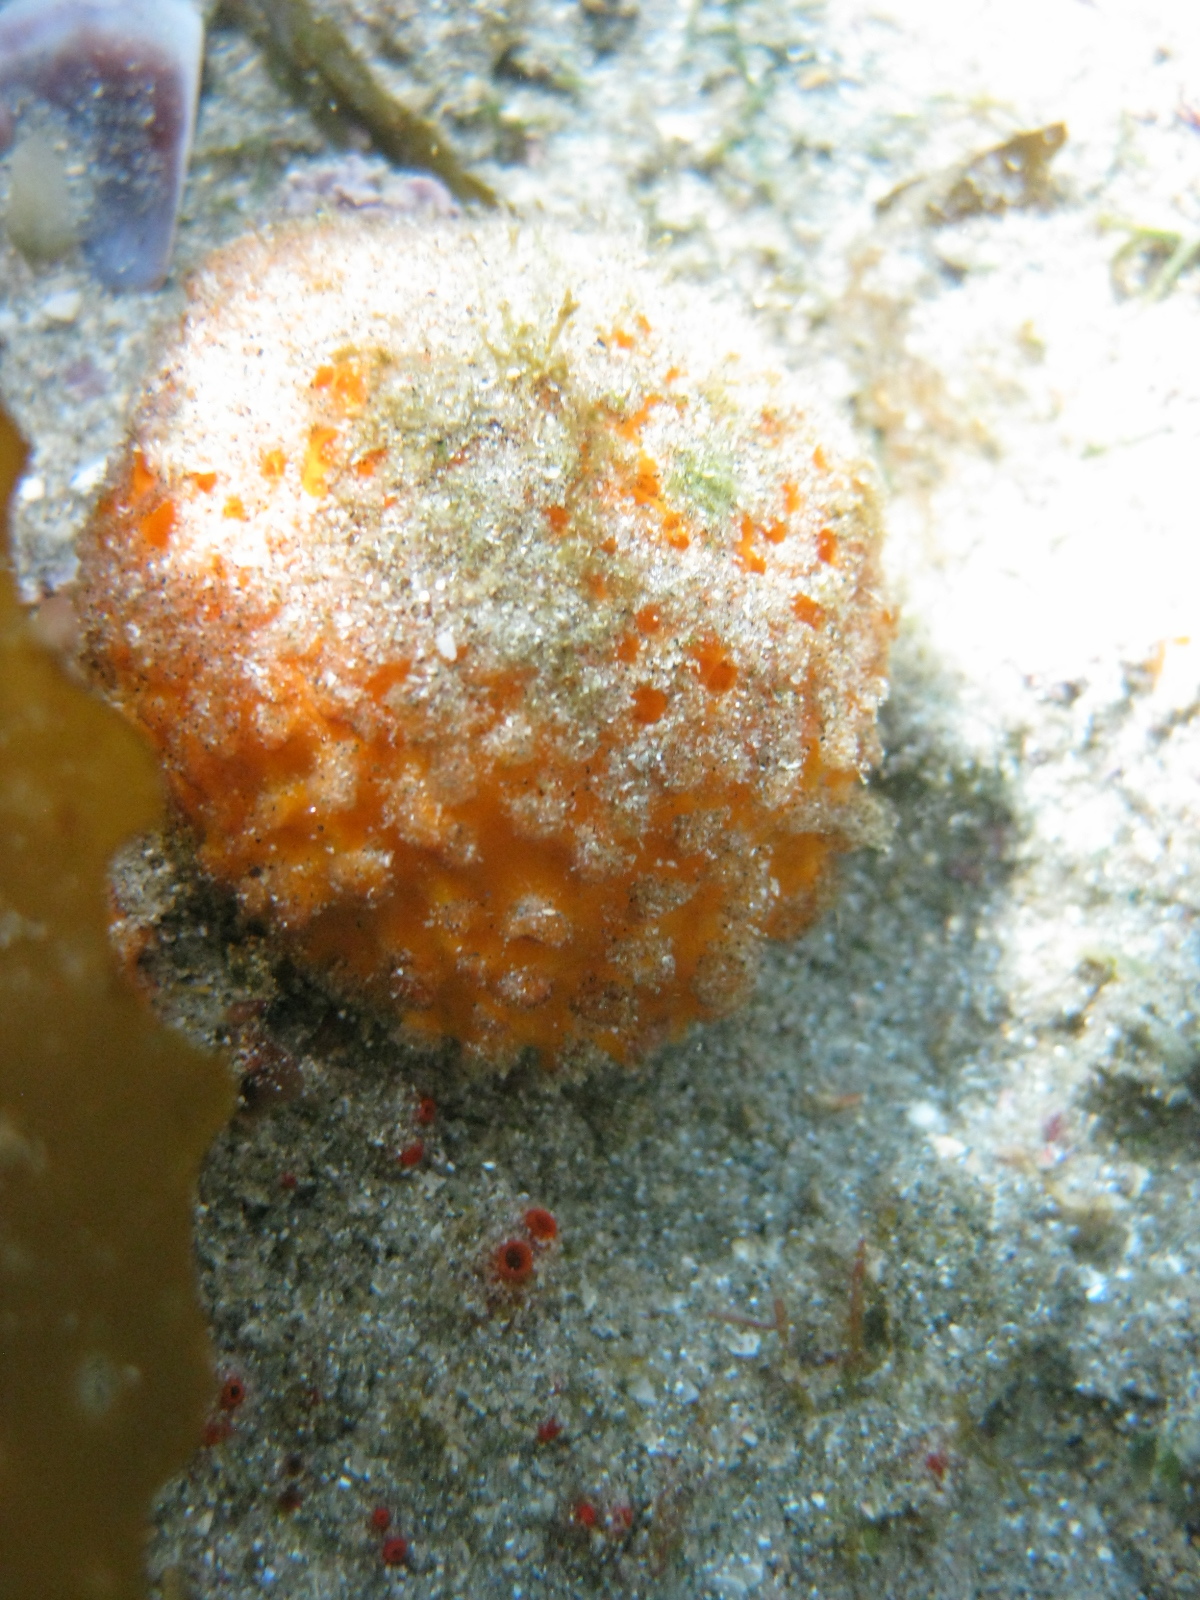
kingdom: Animalia
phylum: Porifera
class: Demospongiae
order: Tethyida
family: Tethyidae
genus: Tethya
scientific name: Tethya burtoni
